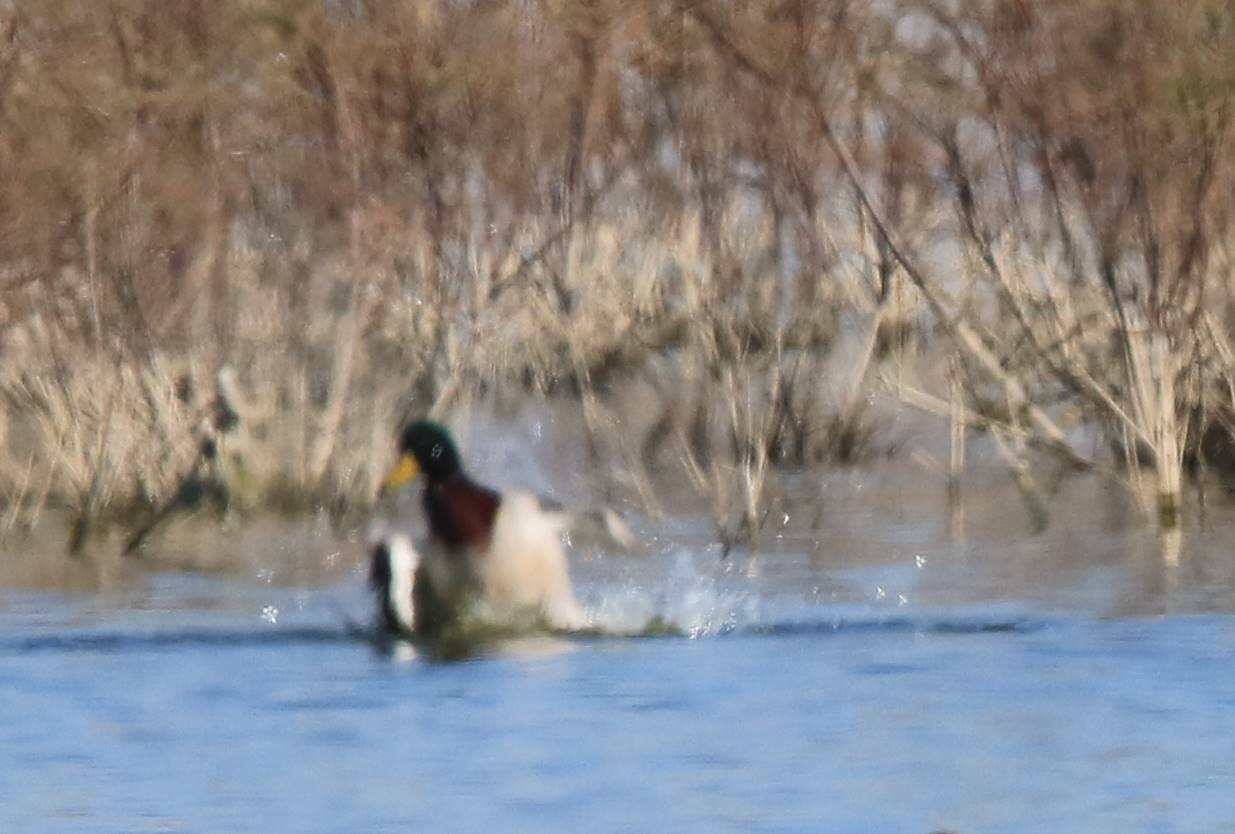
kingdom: Animalia
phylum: Chordata
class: Aves
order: Anseriformes
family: Anatidae
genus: Anas
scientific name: Anas platyrhynchos
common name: Mallard
